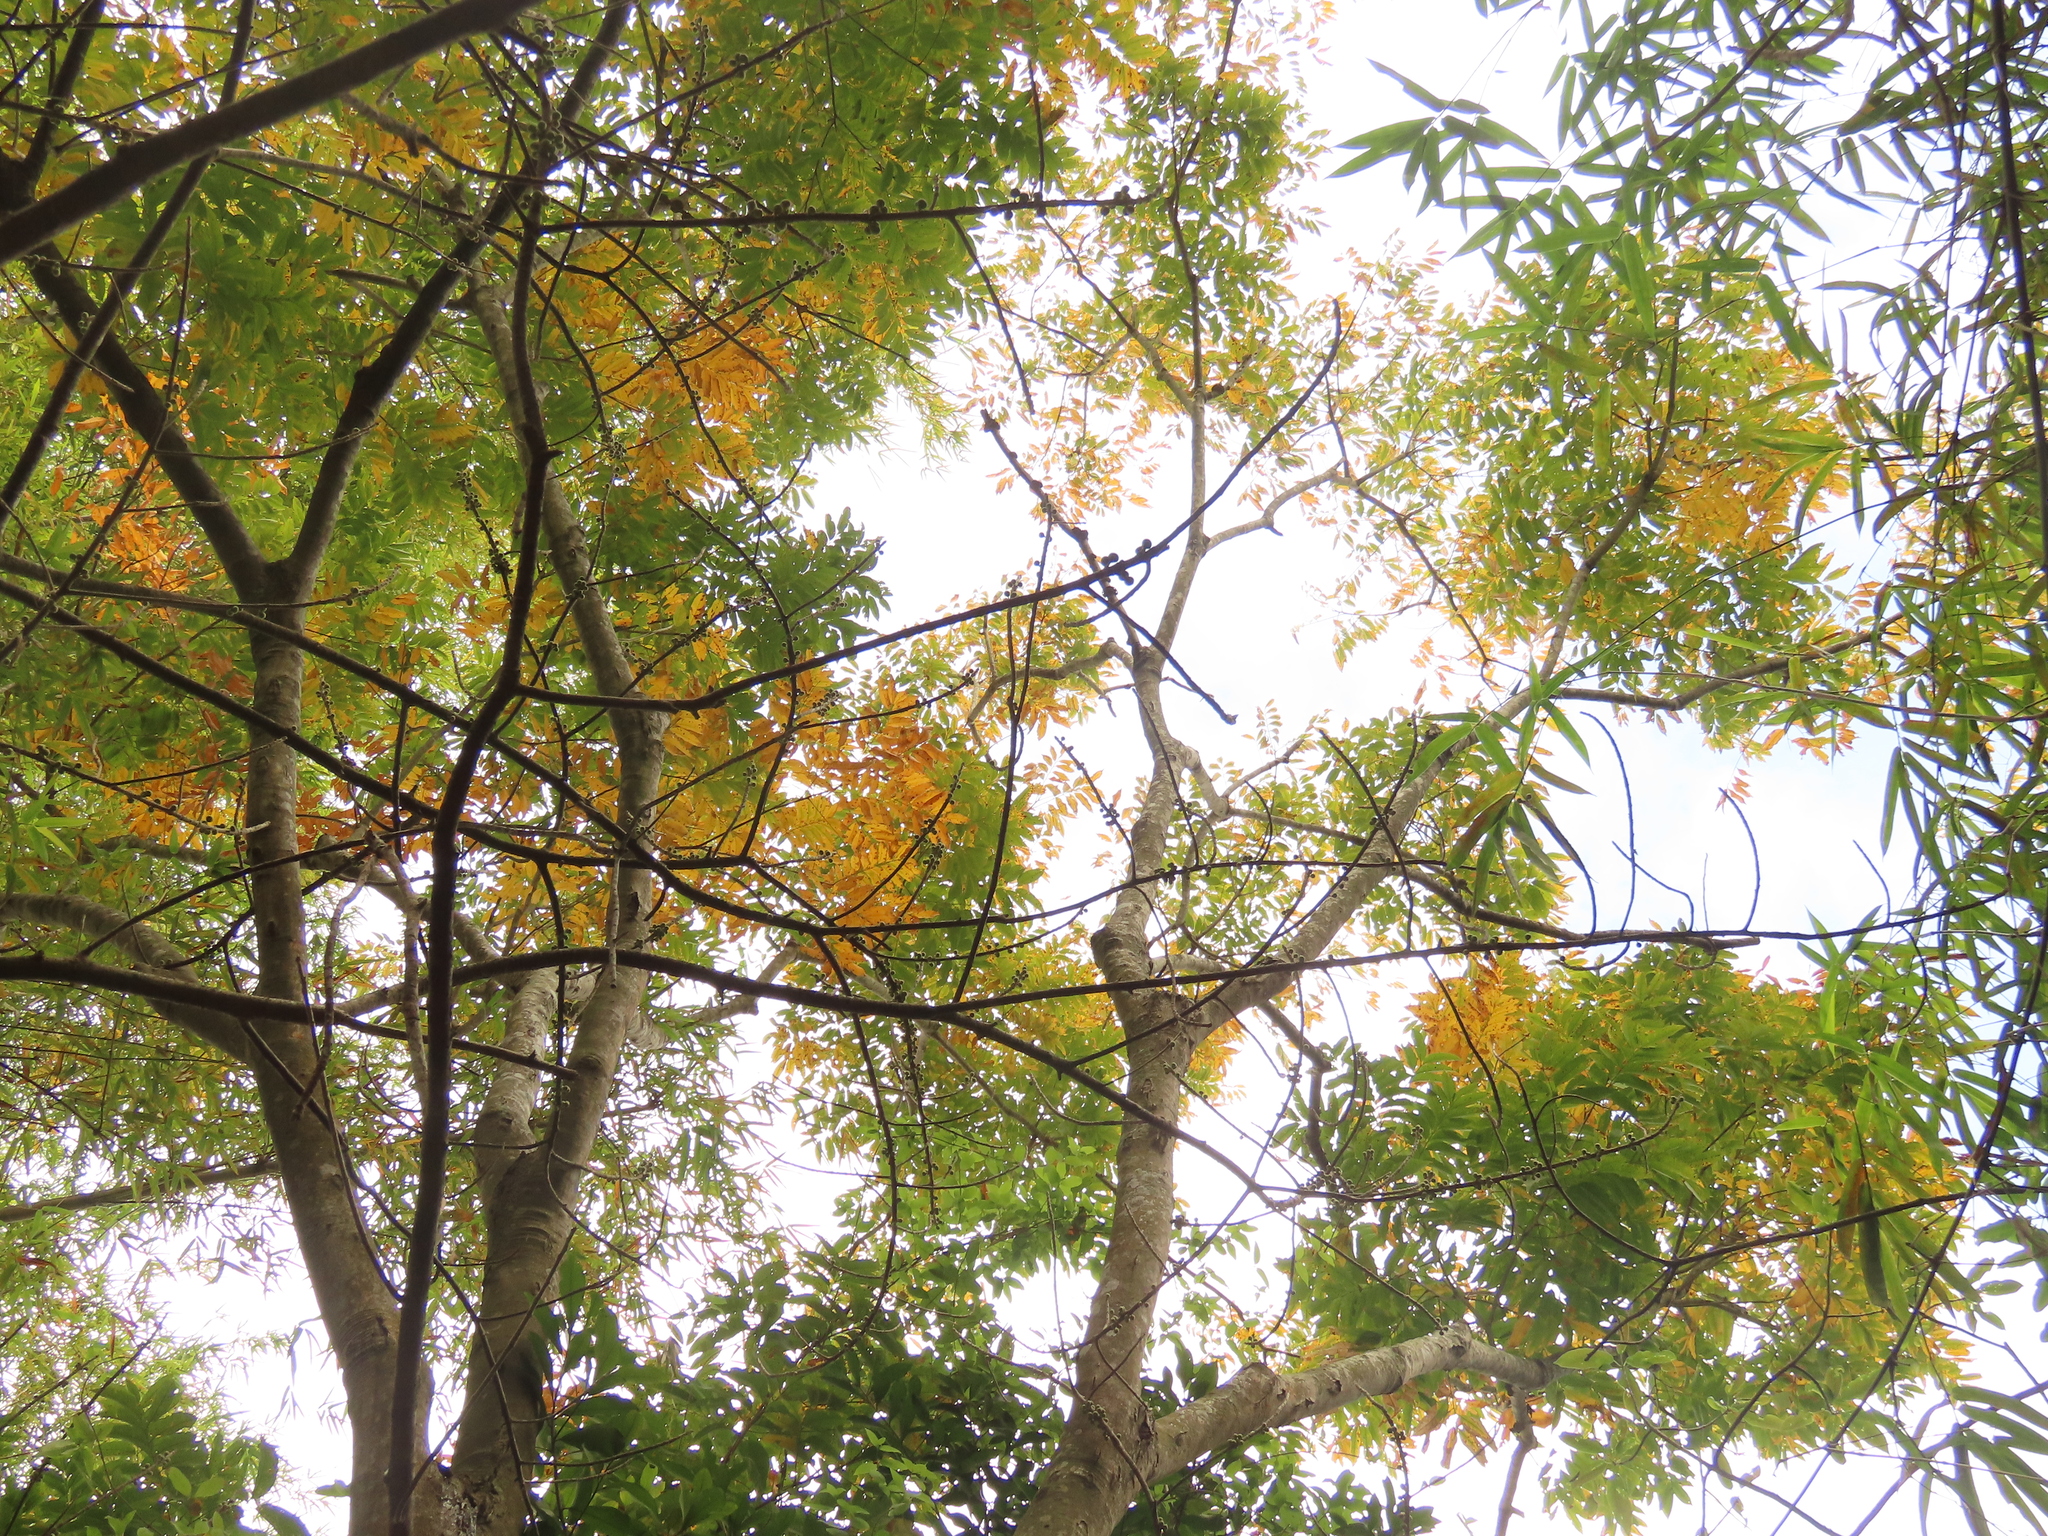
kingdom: Plantae
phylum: Tracheophyta
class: Magnoliopsida
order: Sapindales
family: Sapindaceae
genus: Sapindus
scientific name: Sapindus mukorossi
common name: Chinese soapberry
